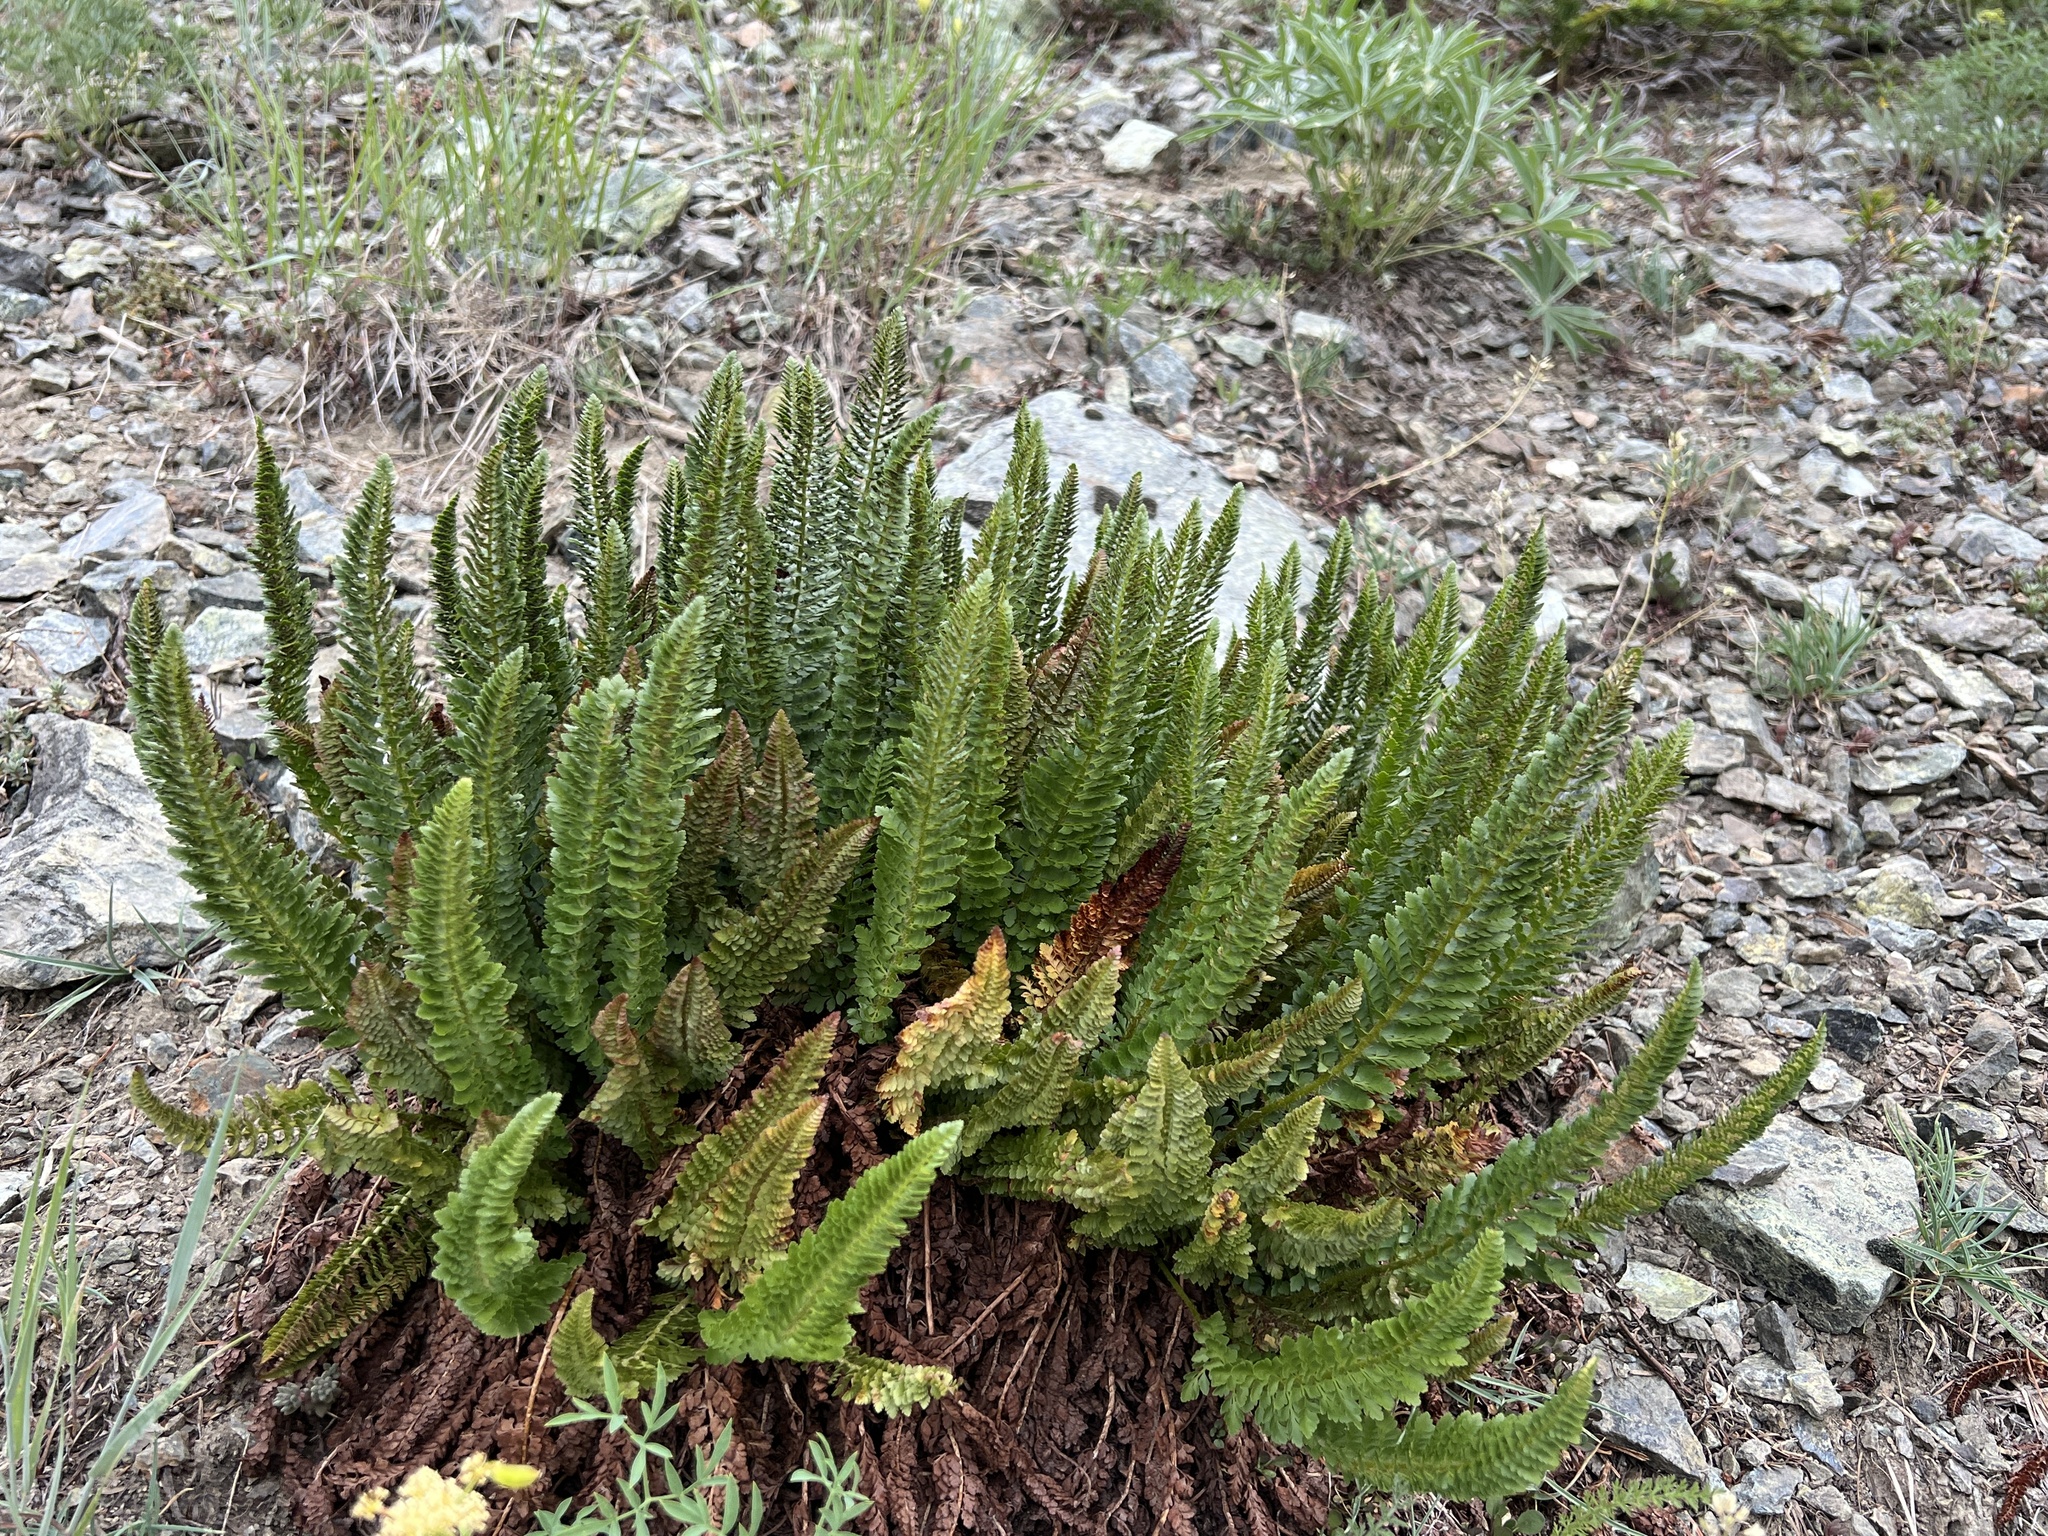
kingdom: Plantae
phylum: Tracheophyta
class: Polypodiopsida
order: Polypodiales
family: Dryopteridaceae
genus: Polystichum
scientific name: Polystichum lemmonii
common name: Lemmon's holly fern
